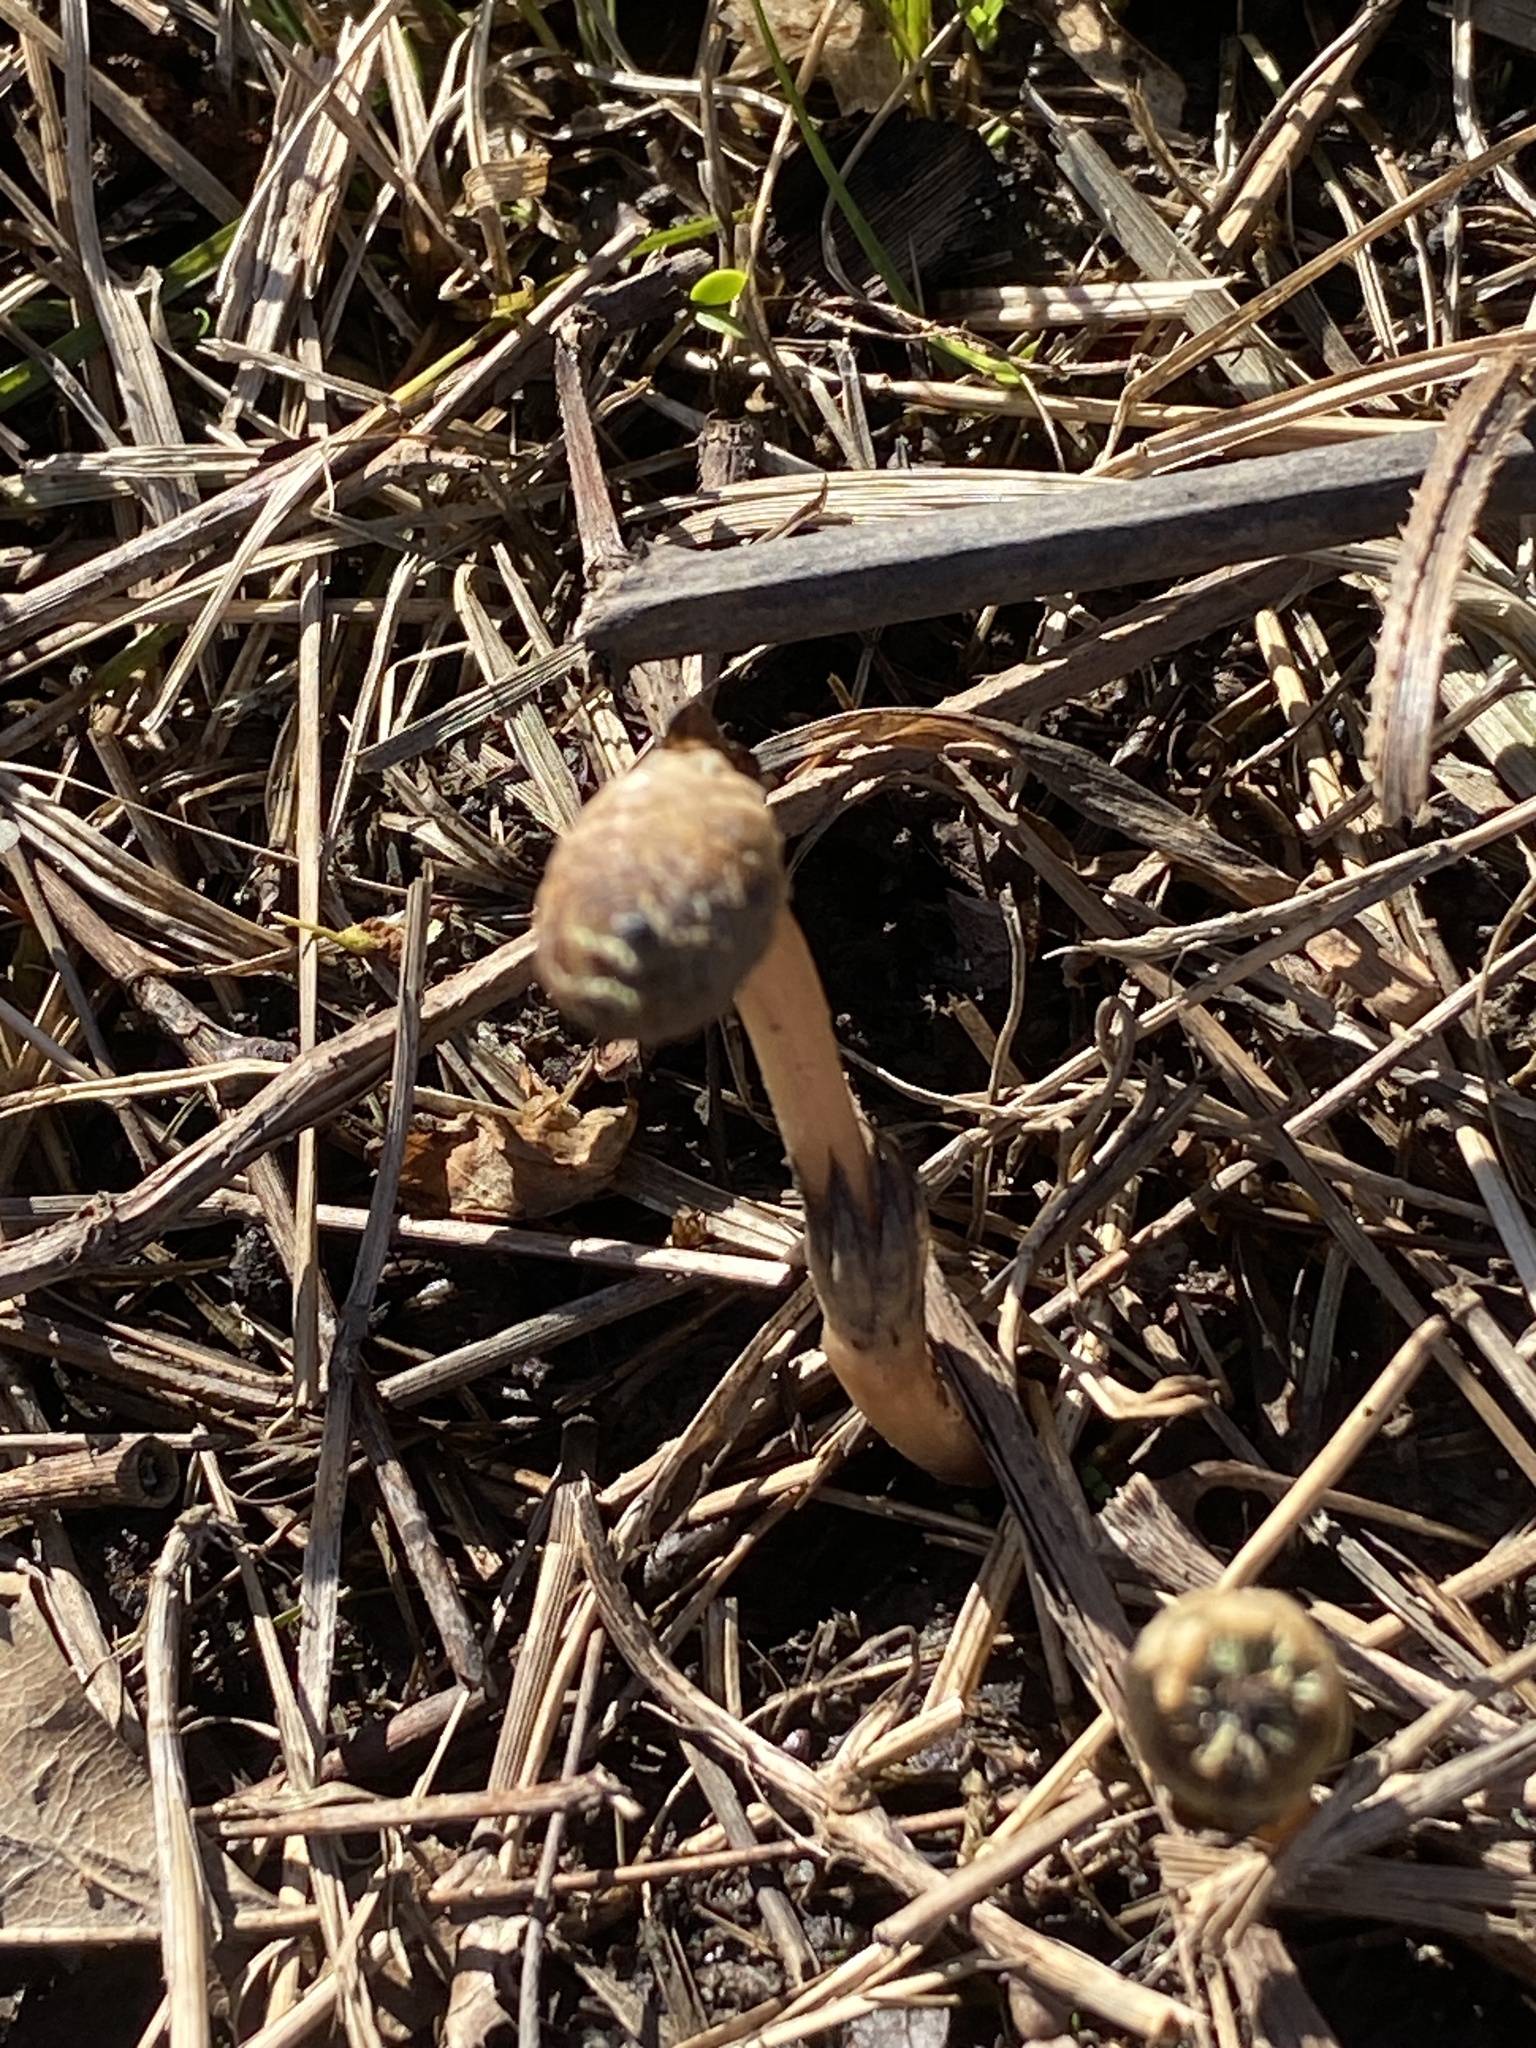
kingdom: Plantae
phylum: Tracheophyta
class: Polypodiopsida
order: Equisetales
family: Equisetaceae
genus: Equisetum
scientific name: Equisetum arvense
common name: Field horsetail
